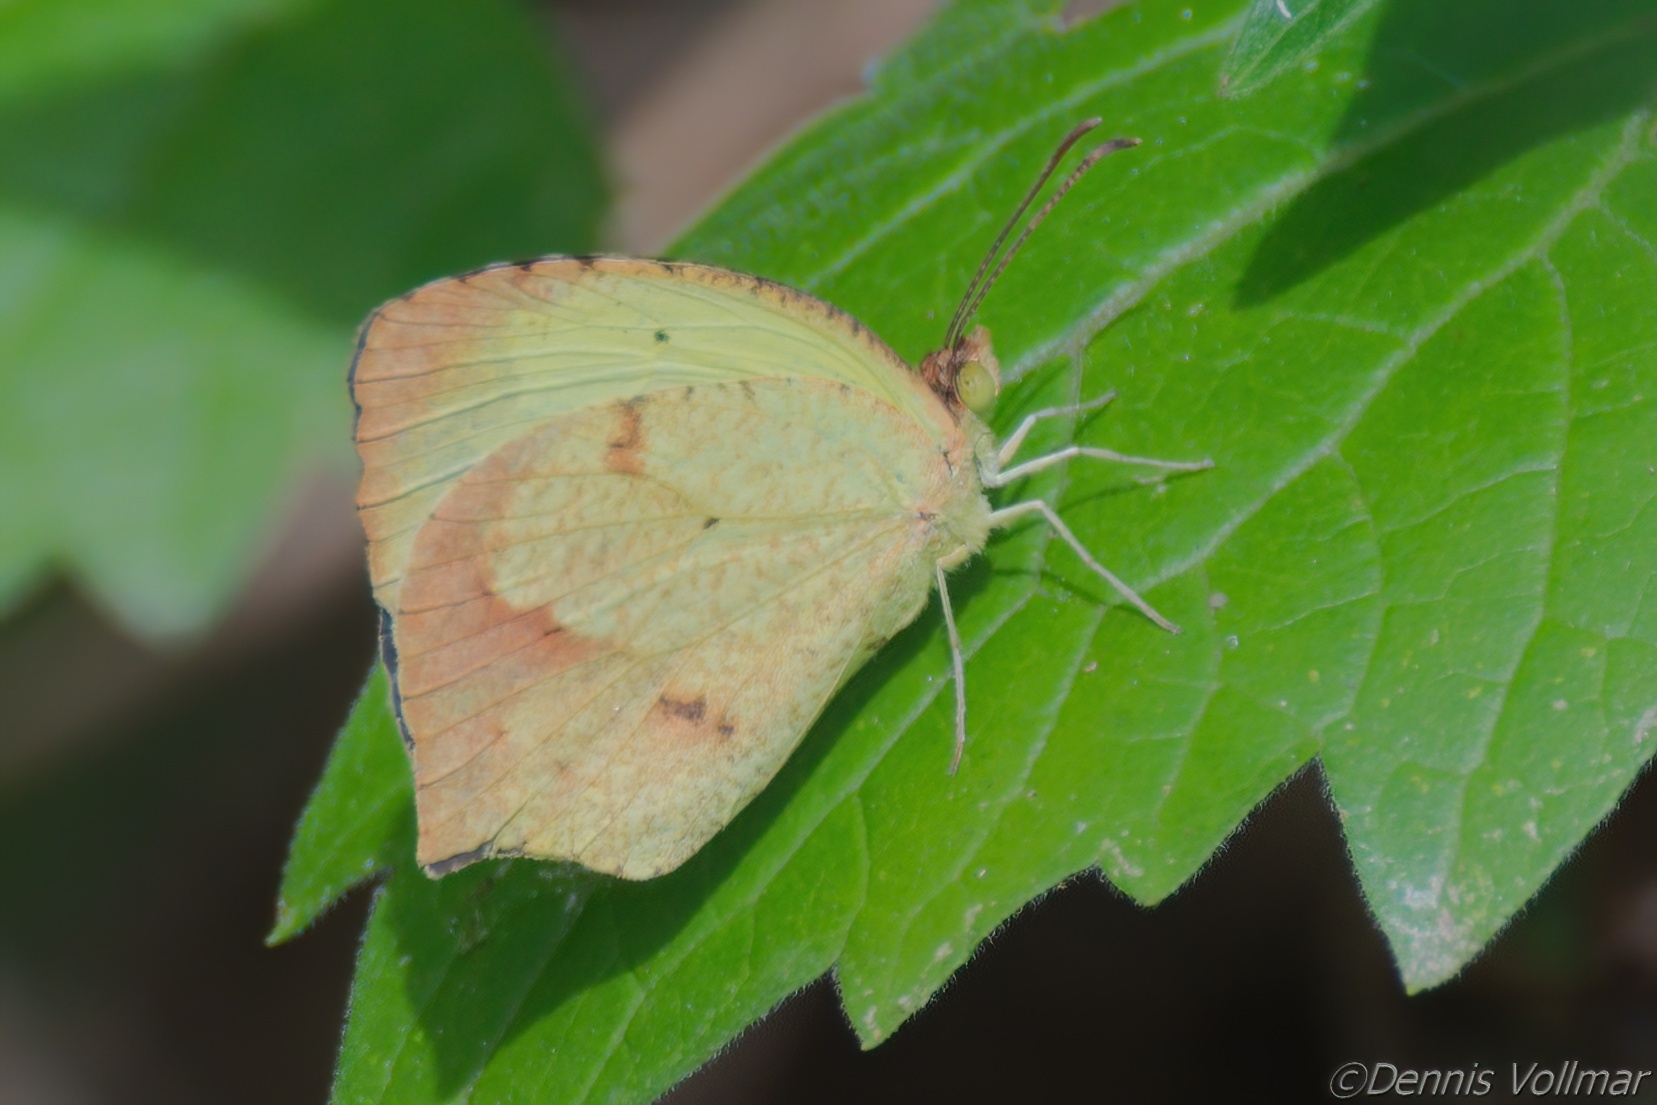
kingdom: Animalia
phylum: Arthropoda
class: Insecta
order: Lepidoptera
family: Pieridae
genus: Abaeis
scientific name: Abaeis boisduvaliana
